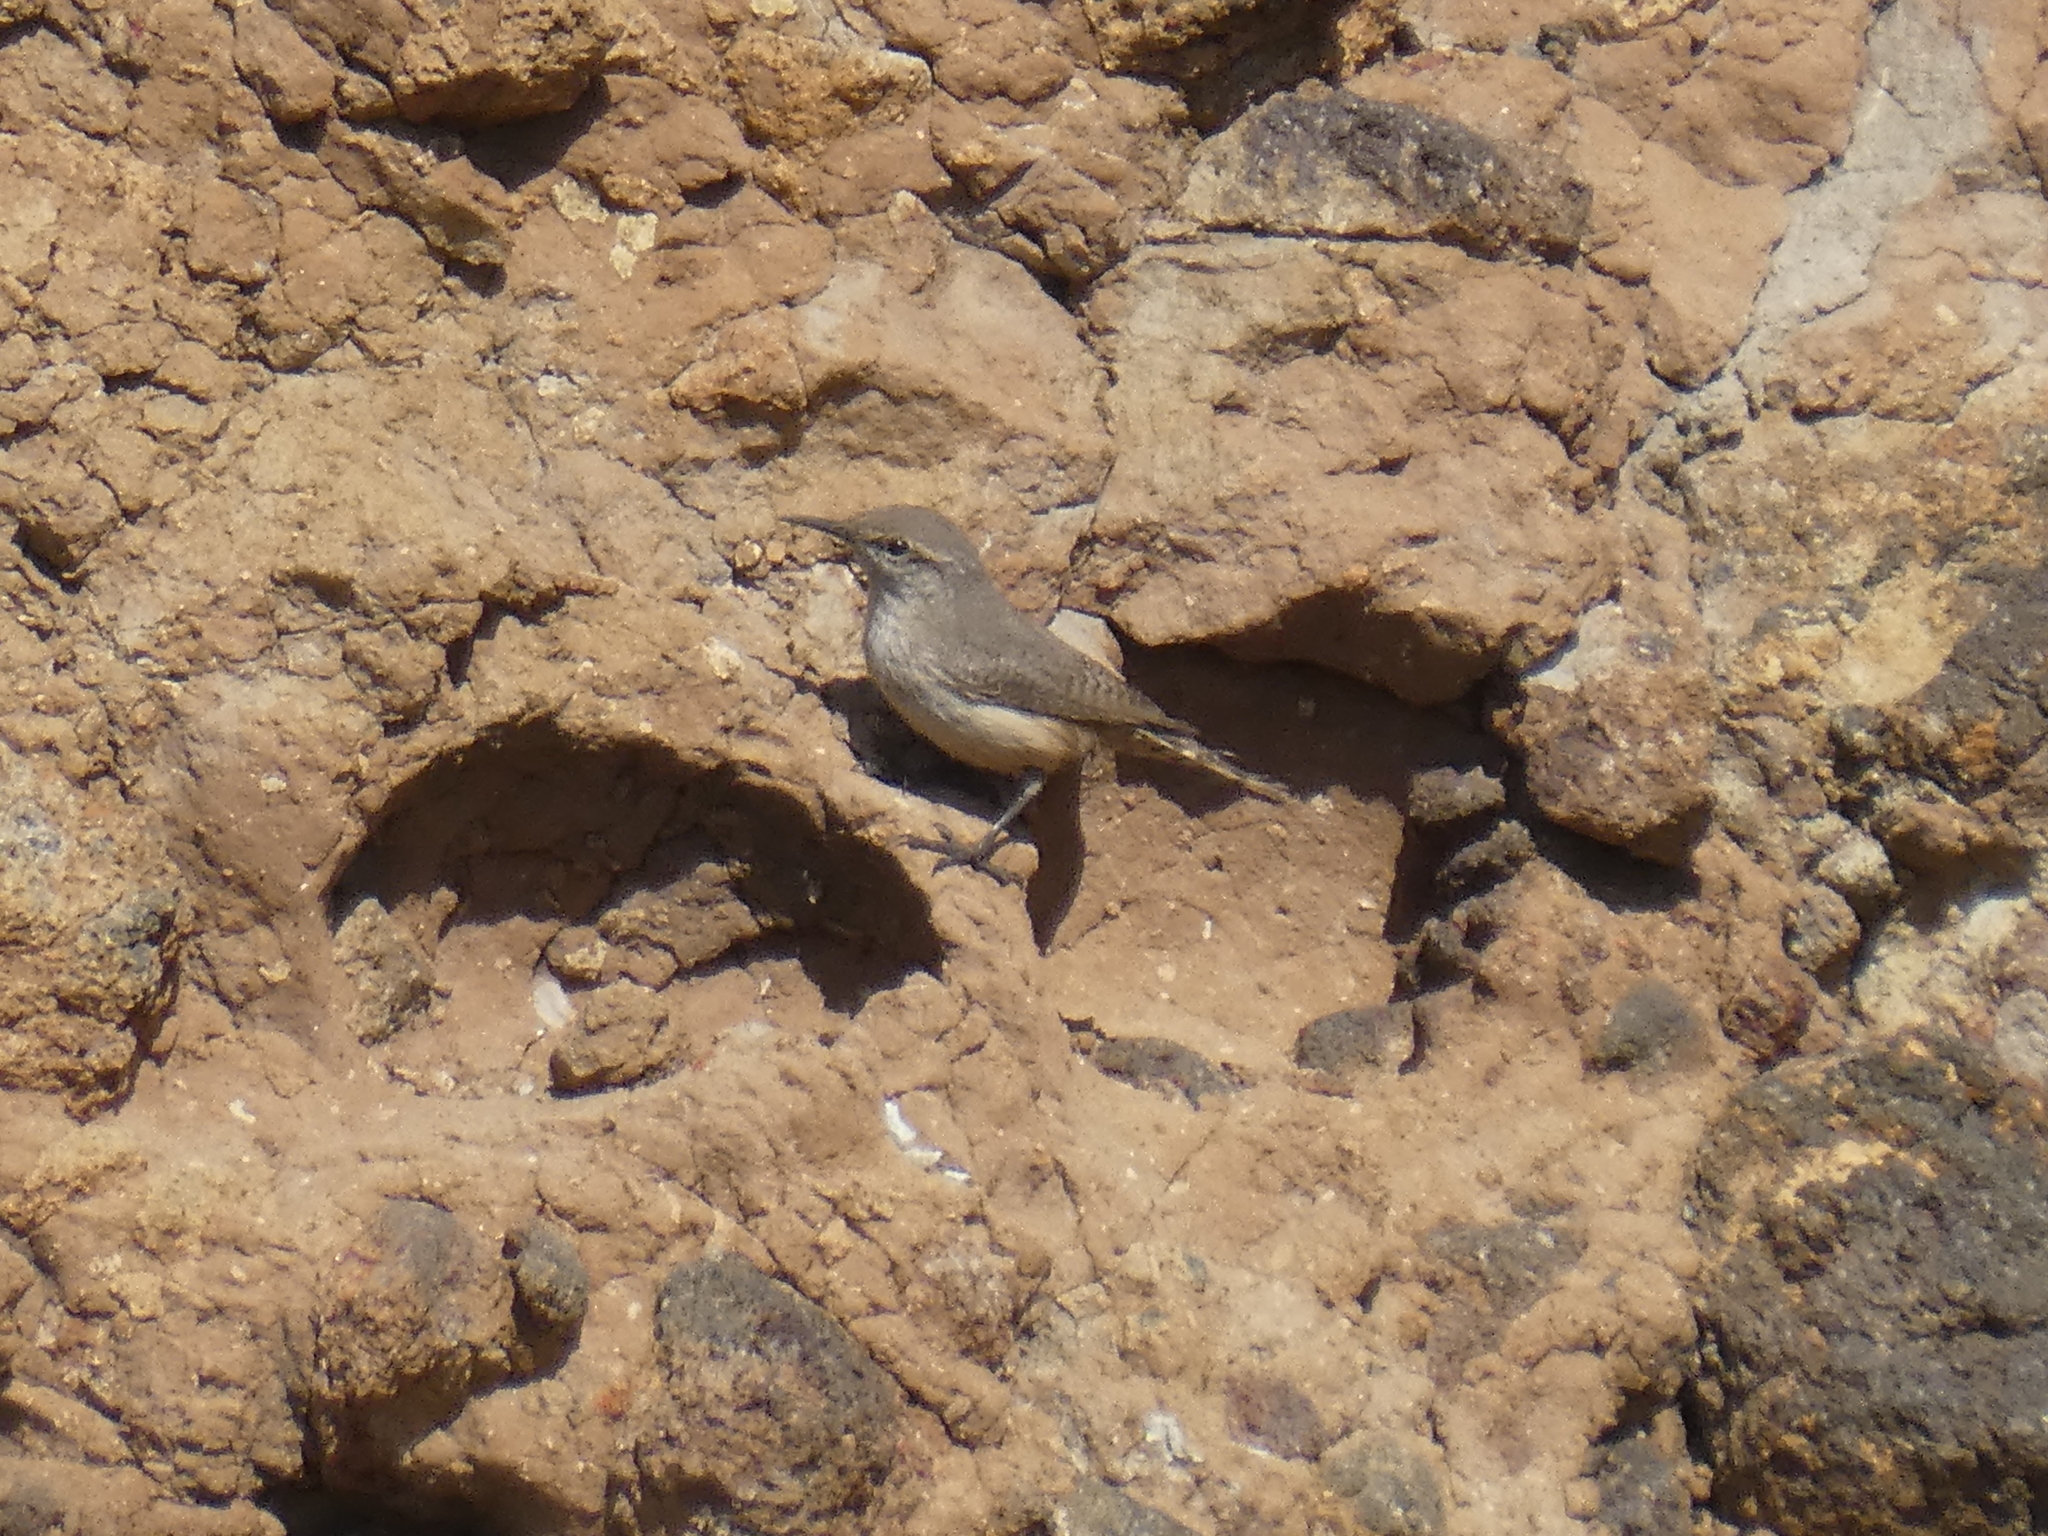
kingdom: Animalia
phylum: Chordata
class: Aves
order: Passeriformes
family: Troglodytidae
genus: Salpinctes
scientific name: Salpinctes obsoletus
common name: Rock wren
